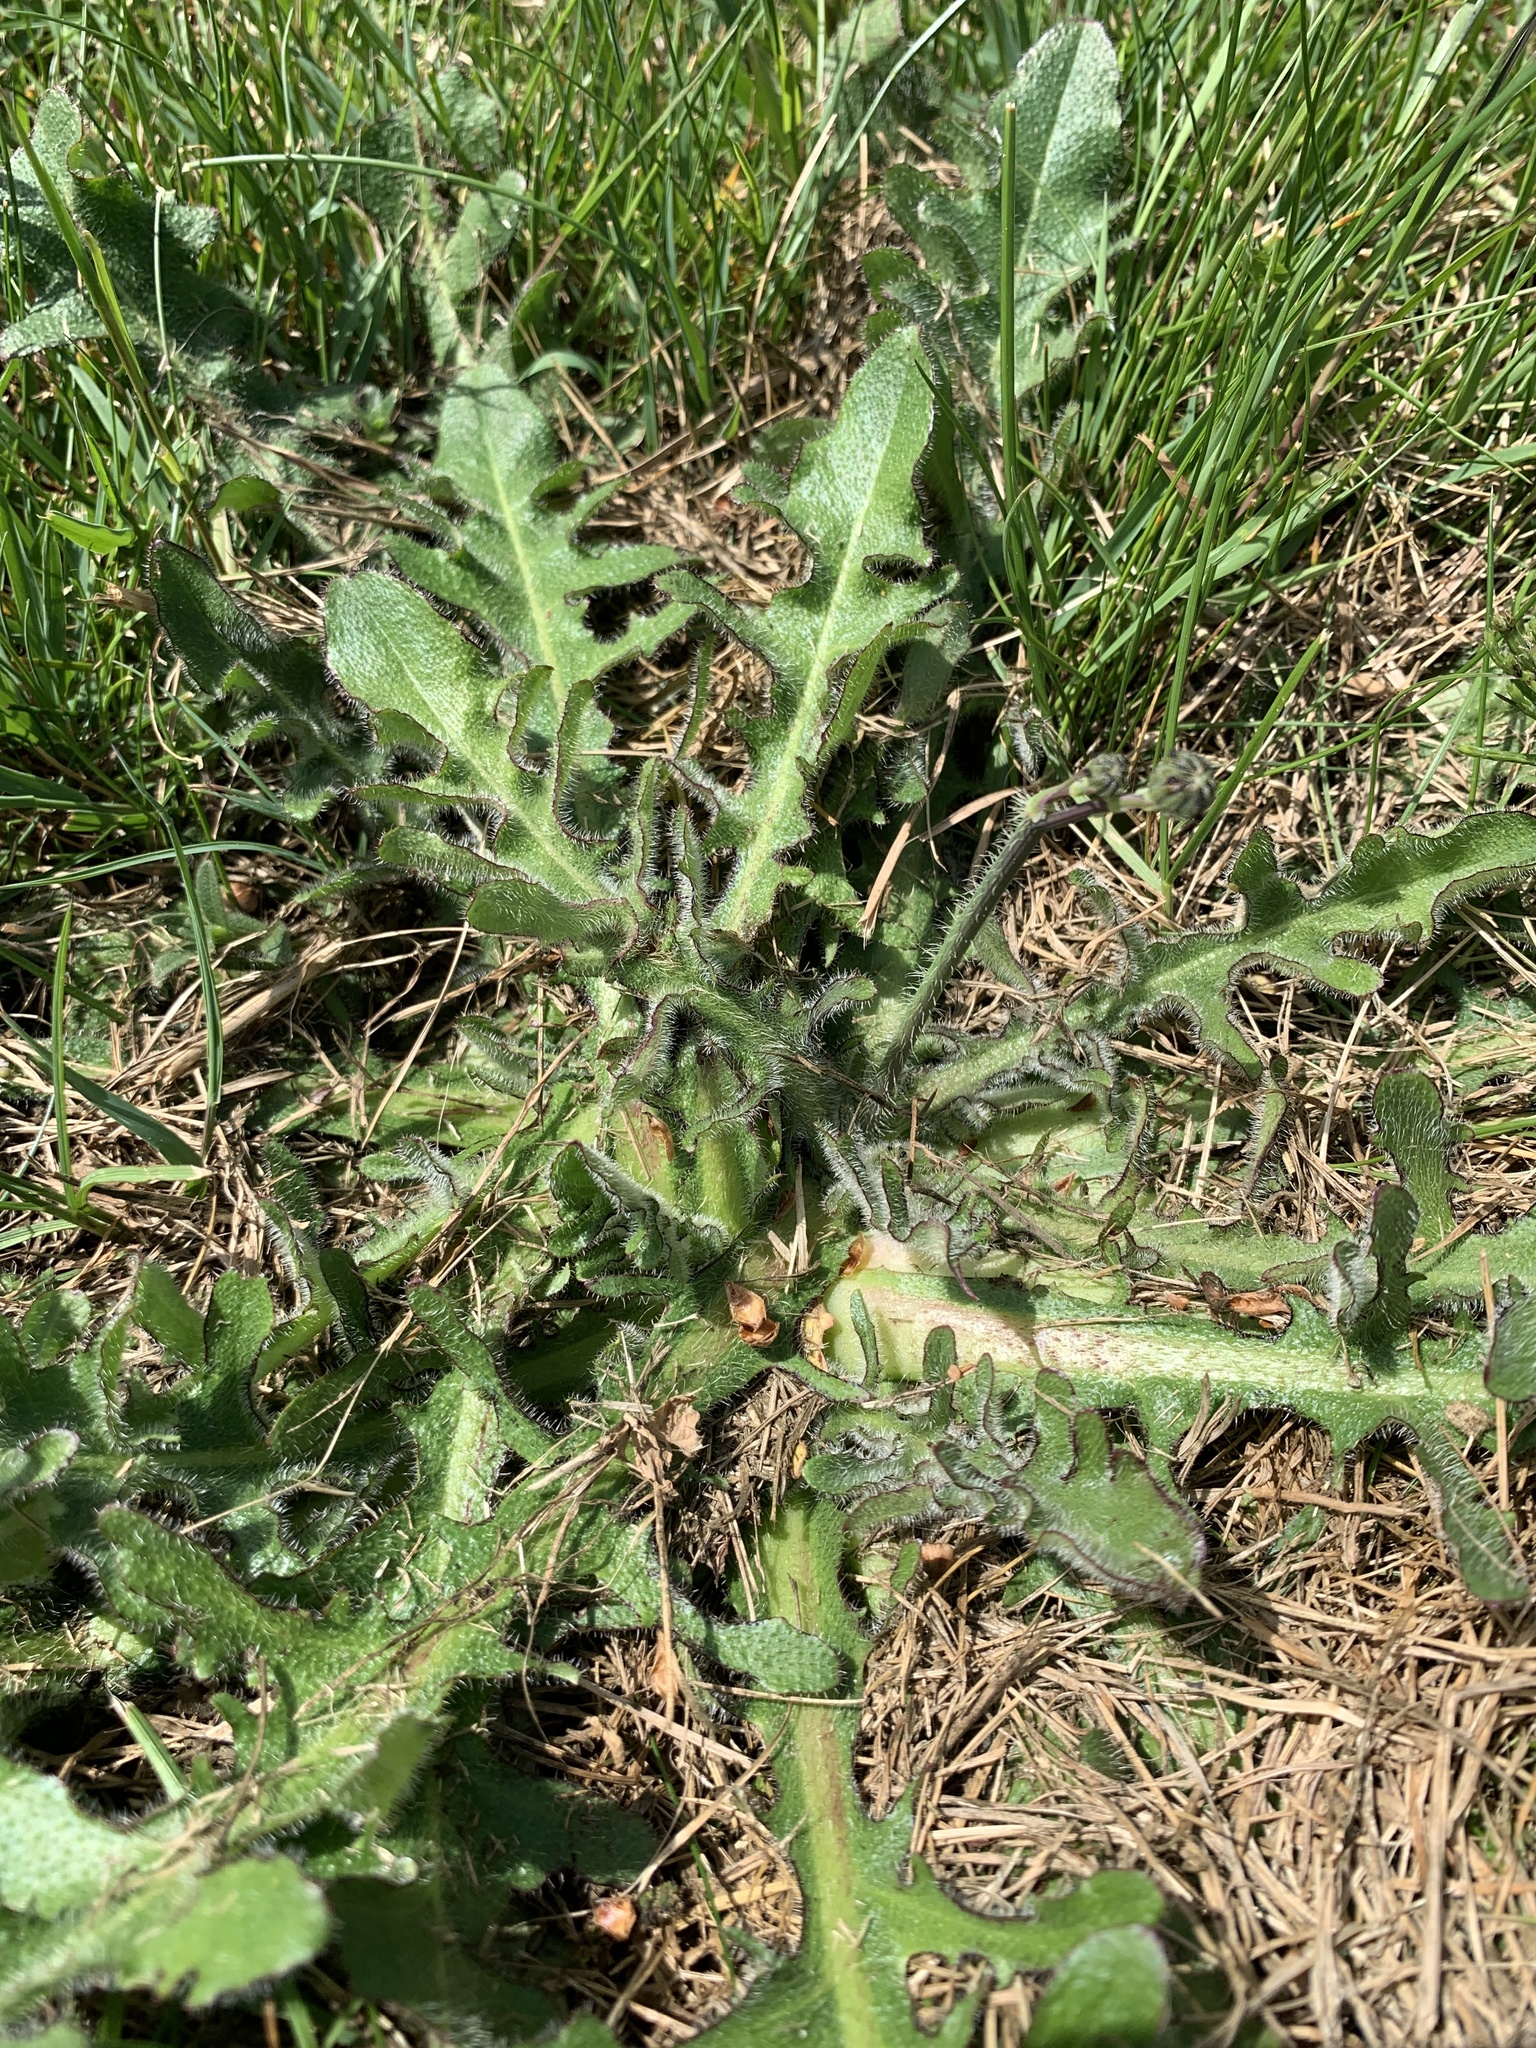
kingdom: Plantae
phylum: Tracheophyta
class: Magnoliopsida
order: Asterales
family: Asteraceae
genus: Hypochaeris
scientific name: Hypochaeris radicata
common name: Flatweed
